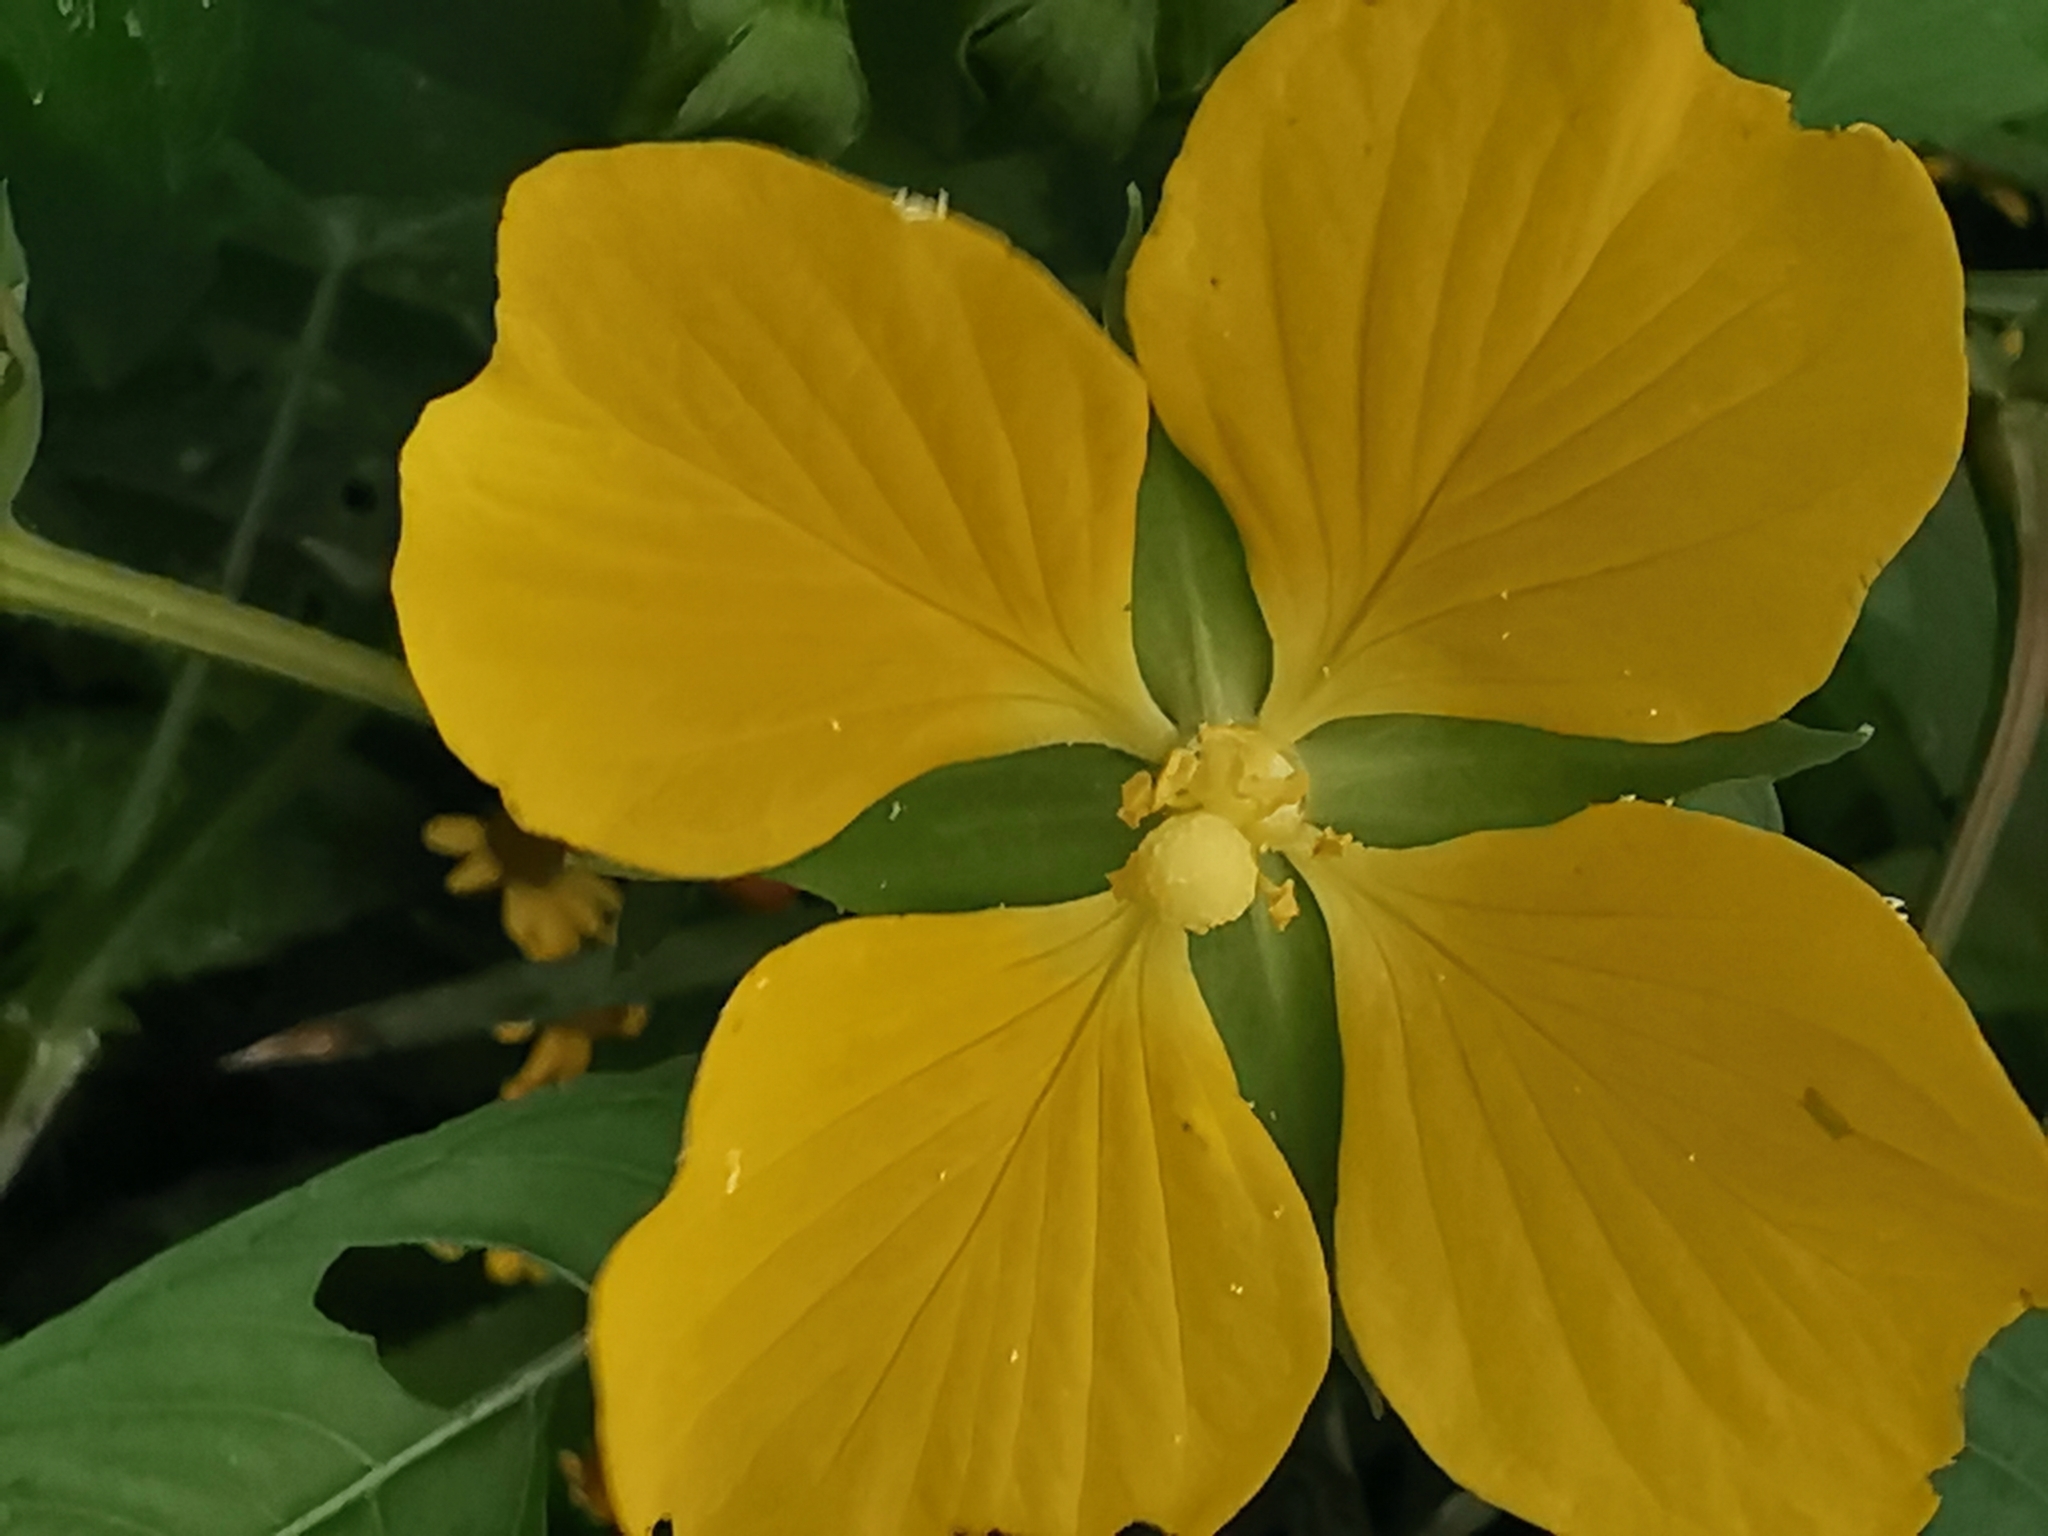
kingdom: Plantae
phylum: Tracheophyta
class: Magnoliopsida
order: Myrtales
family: Onagraceae
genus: Ludwigia
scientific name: Ludwigia octovalvis
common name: Water-primrose
